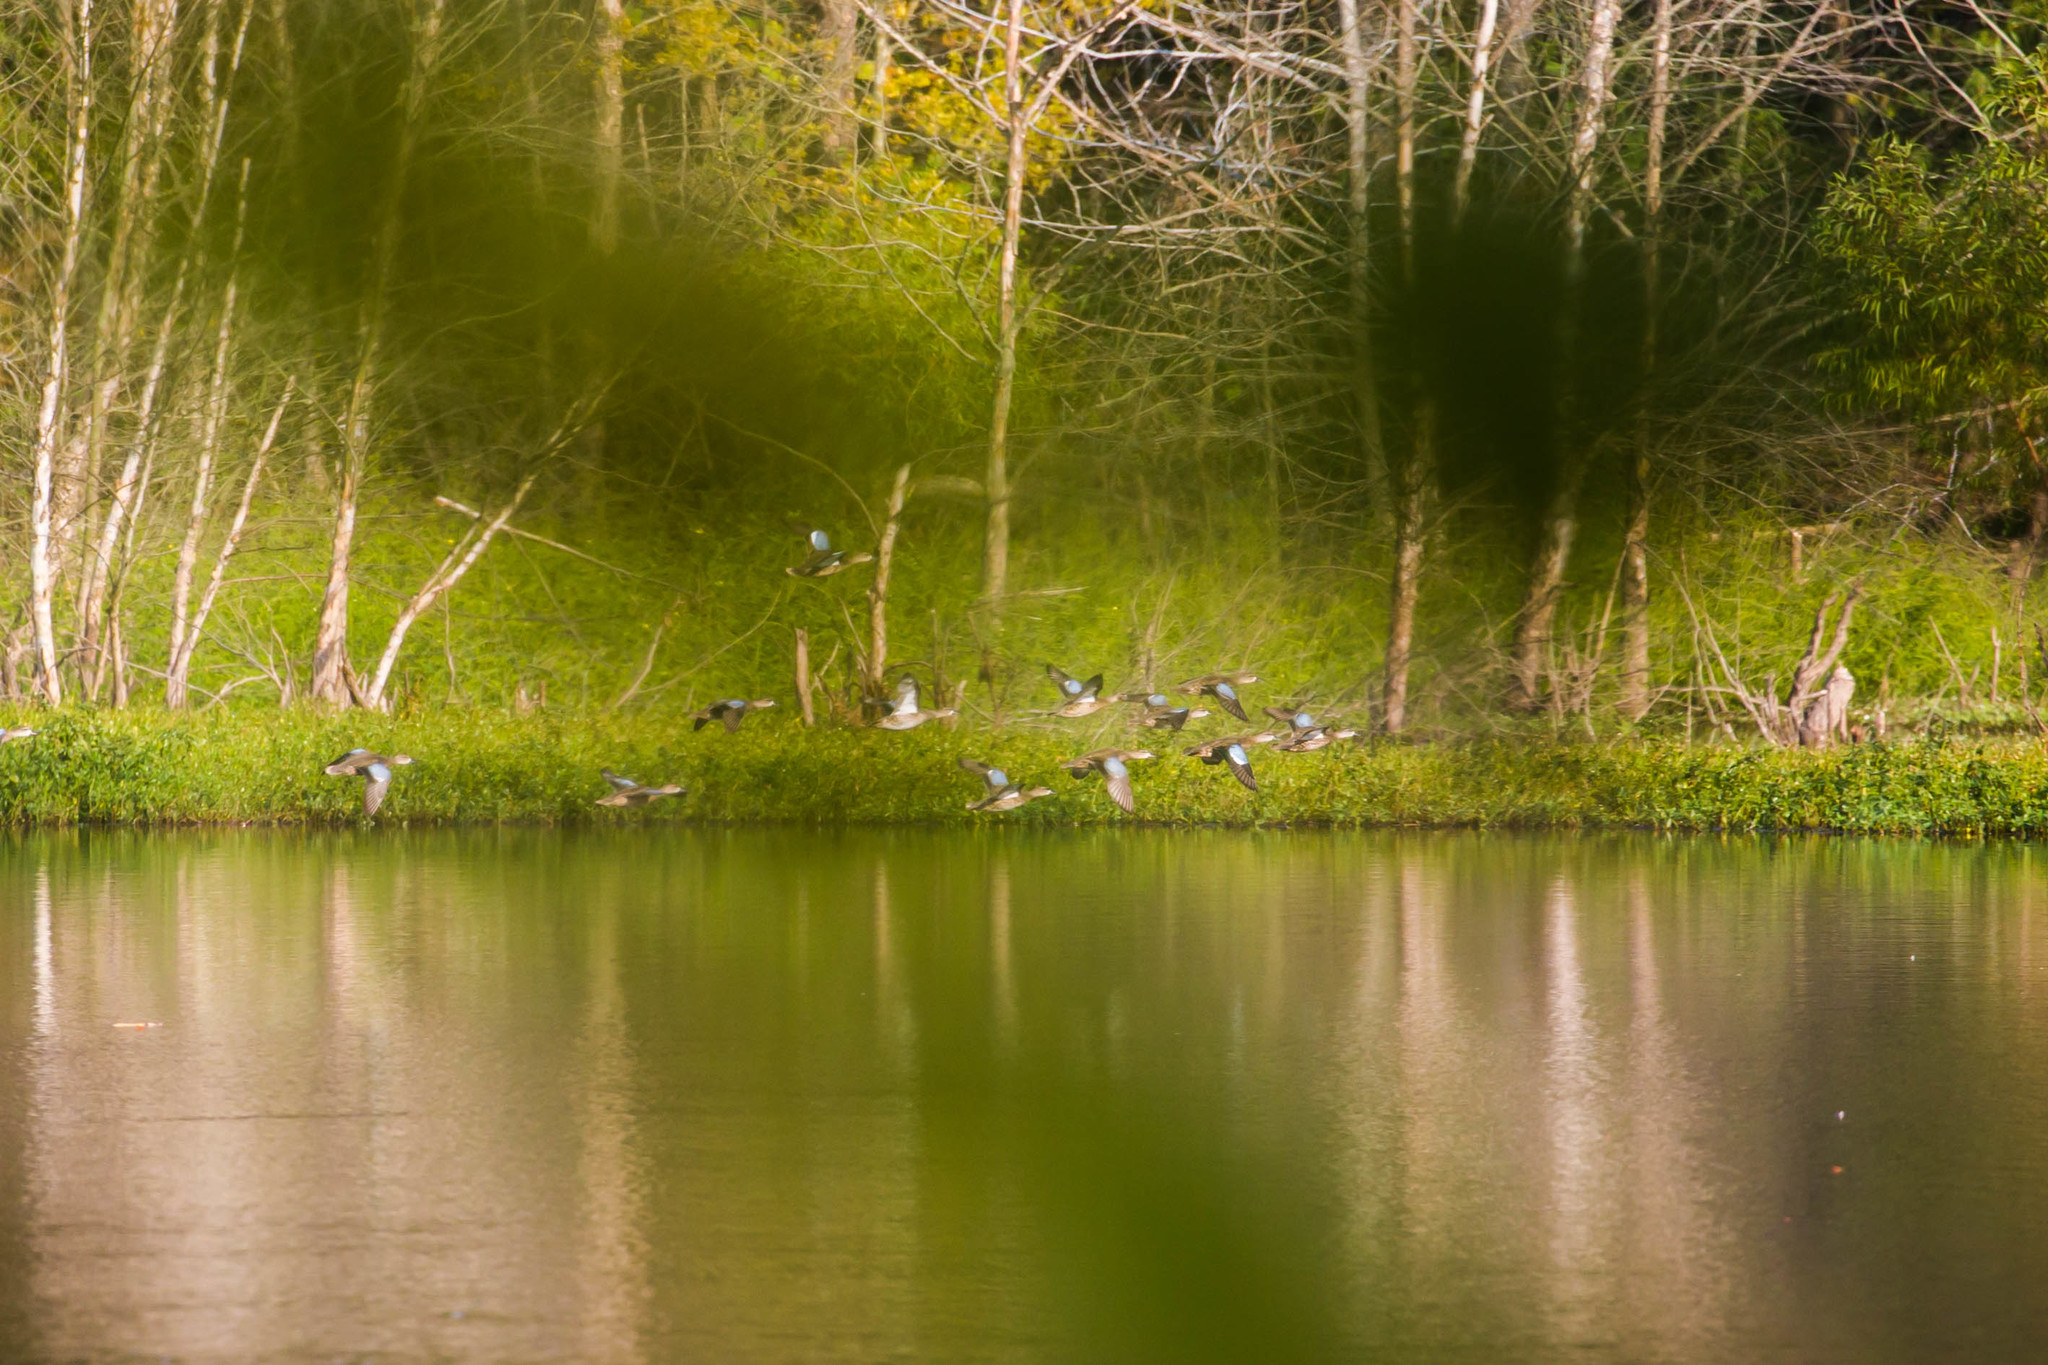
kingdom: Animalia
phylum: Chordata
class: Aves
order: Anseriformes
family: Anatidae
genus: Spatula
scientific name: Spatula discors
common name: Blue-winged teal
